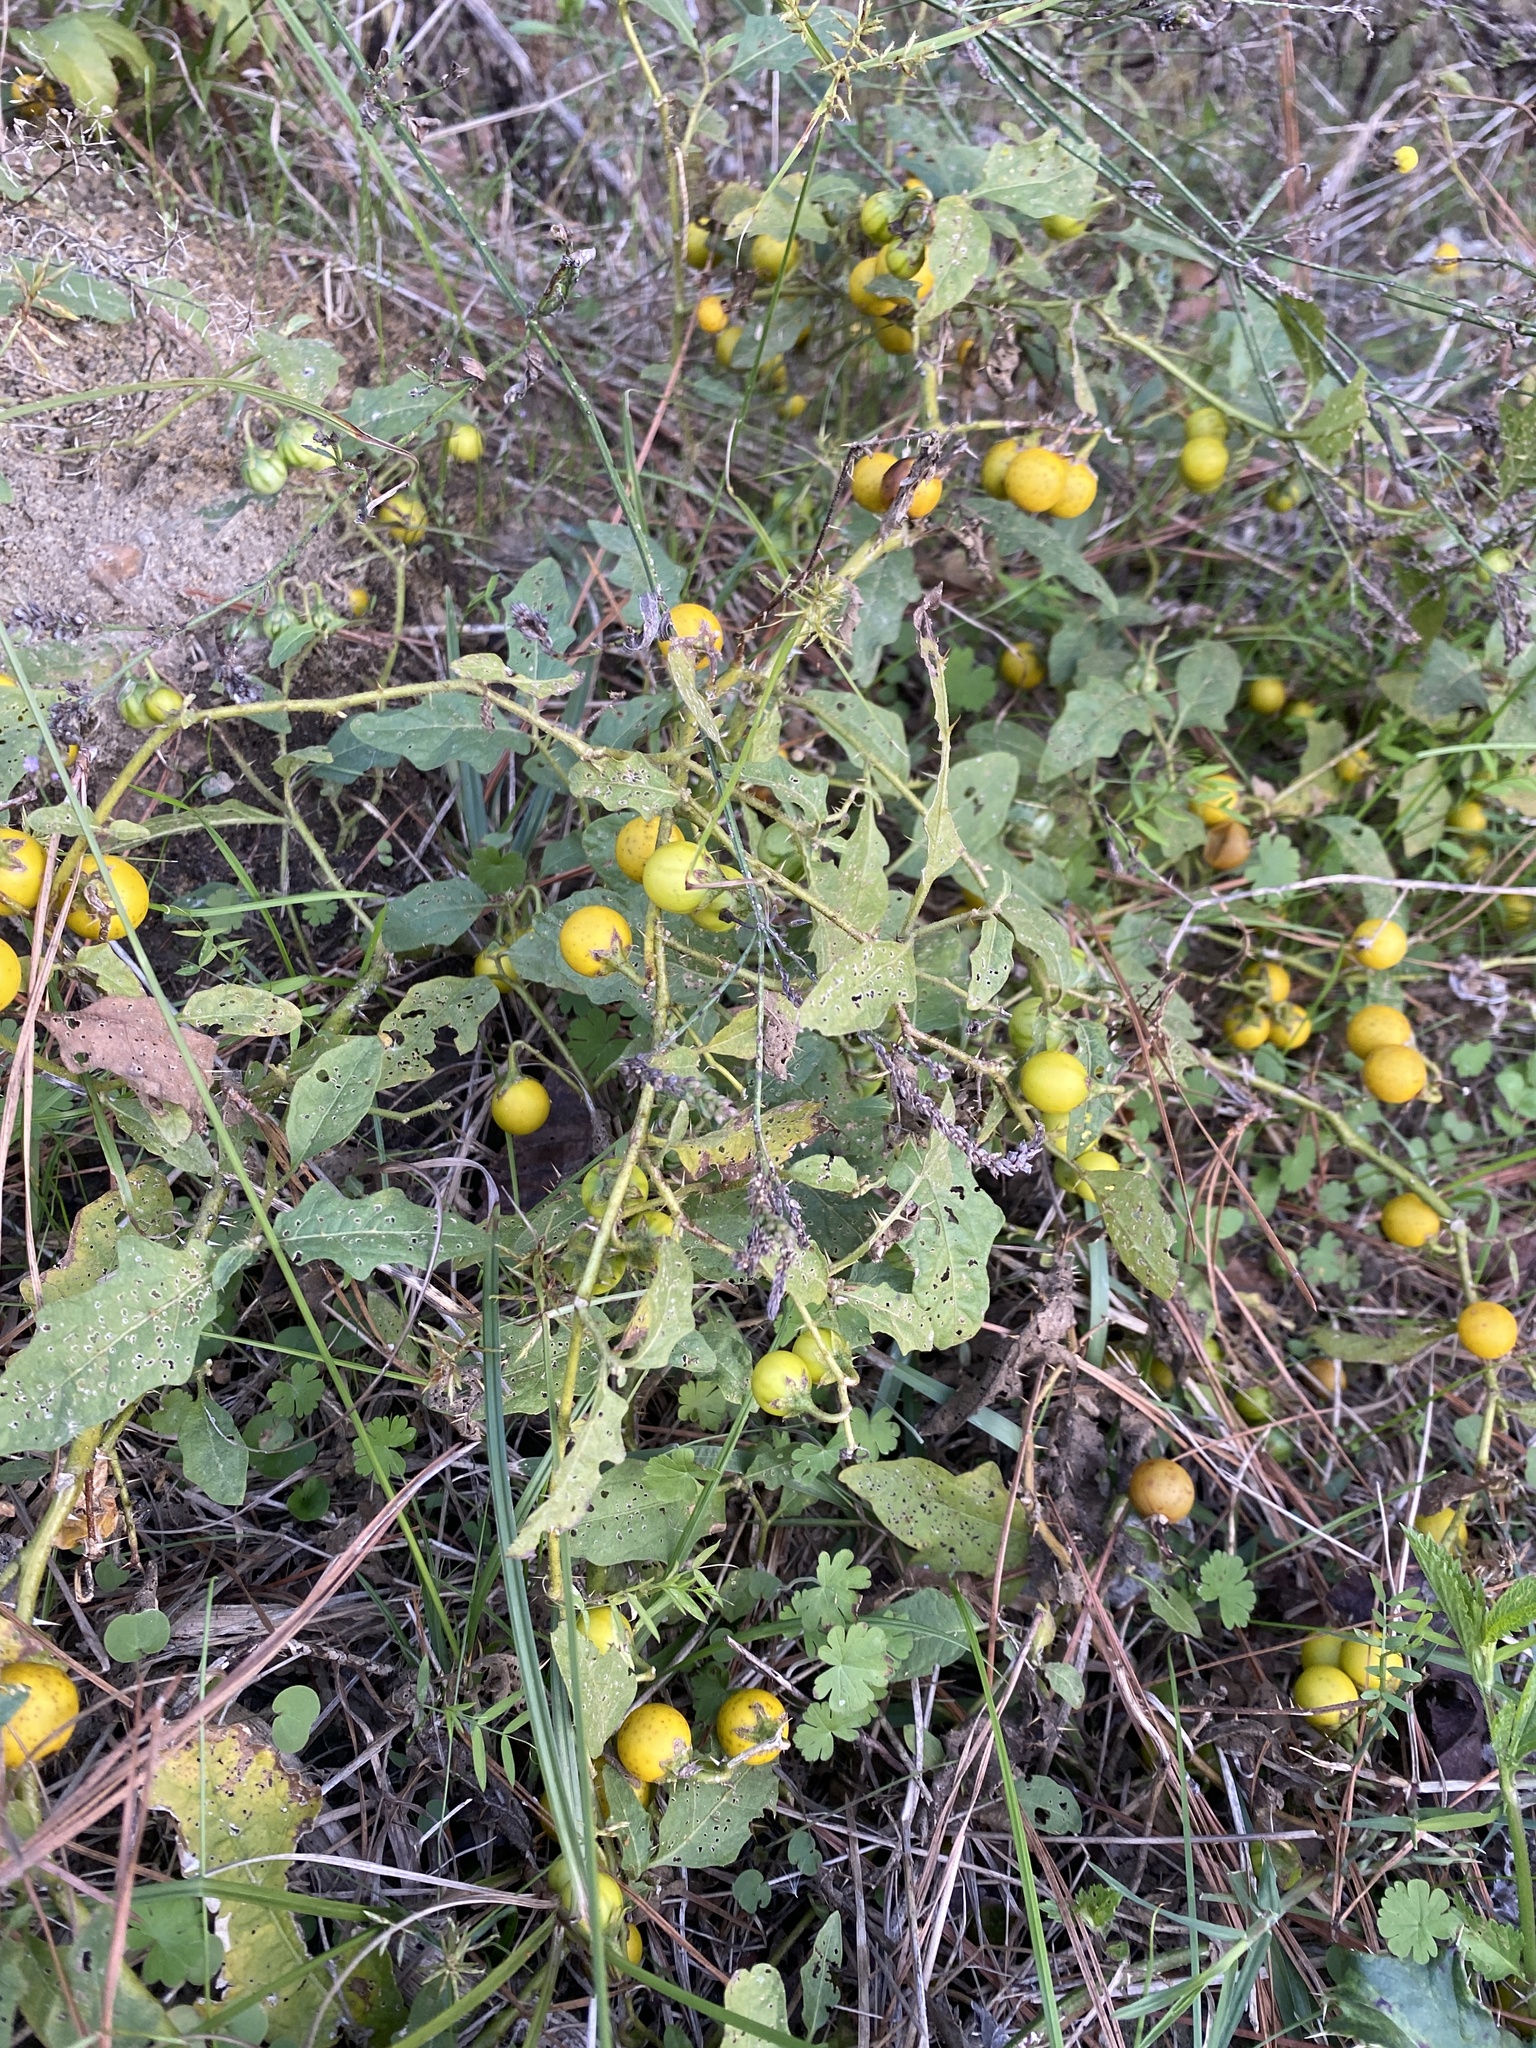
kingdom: Plantae
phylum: Tracheophyta
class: Magnoliopsida
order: Solanales
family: Solanaceae
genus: Solanum
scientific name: Solanum carolinense
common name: Horse-nettle
